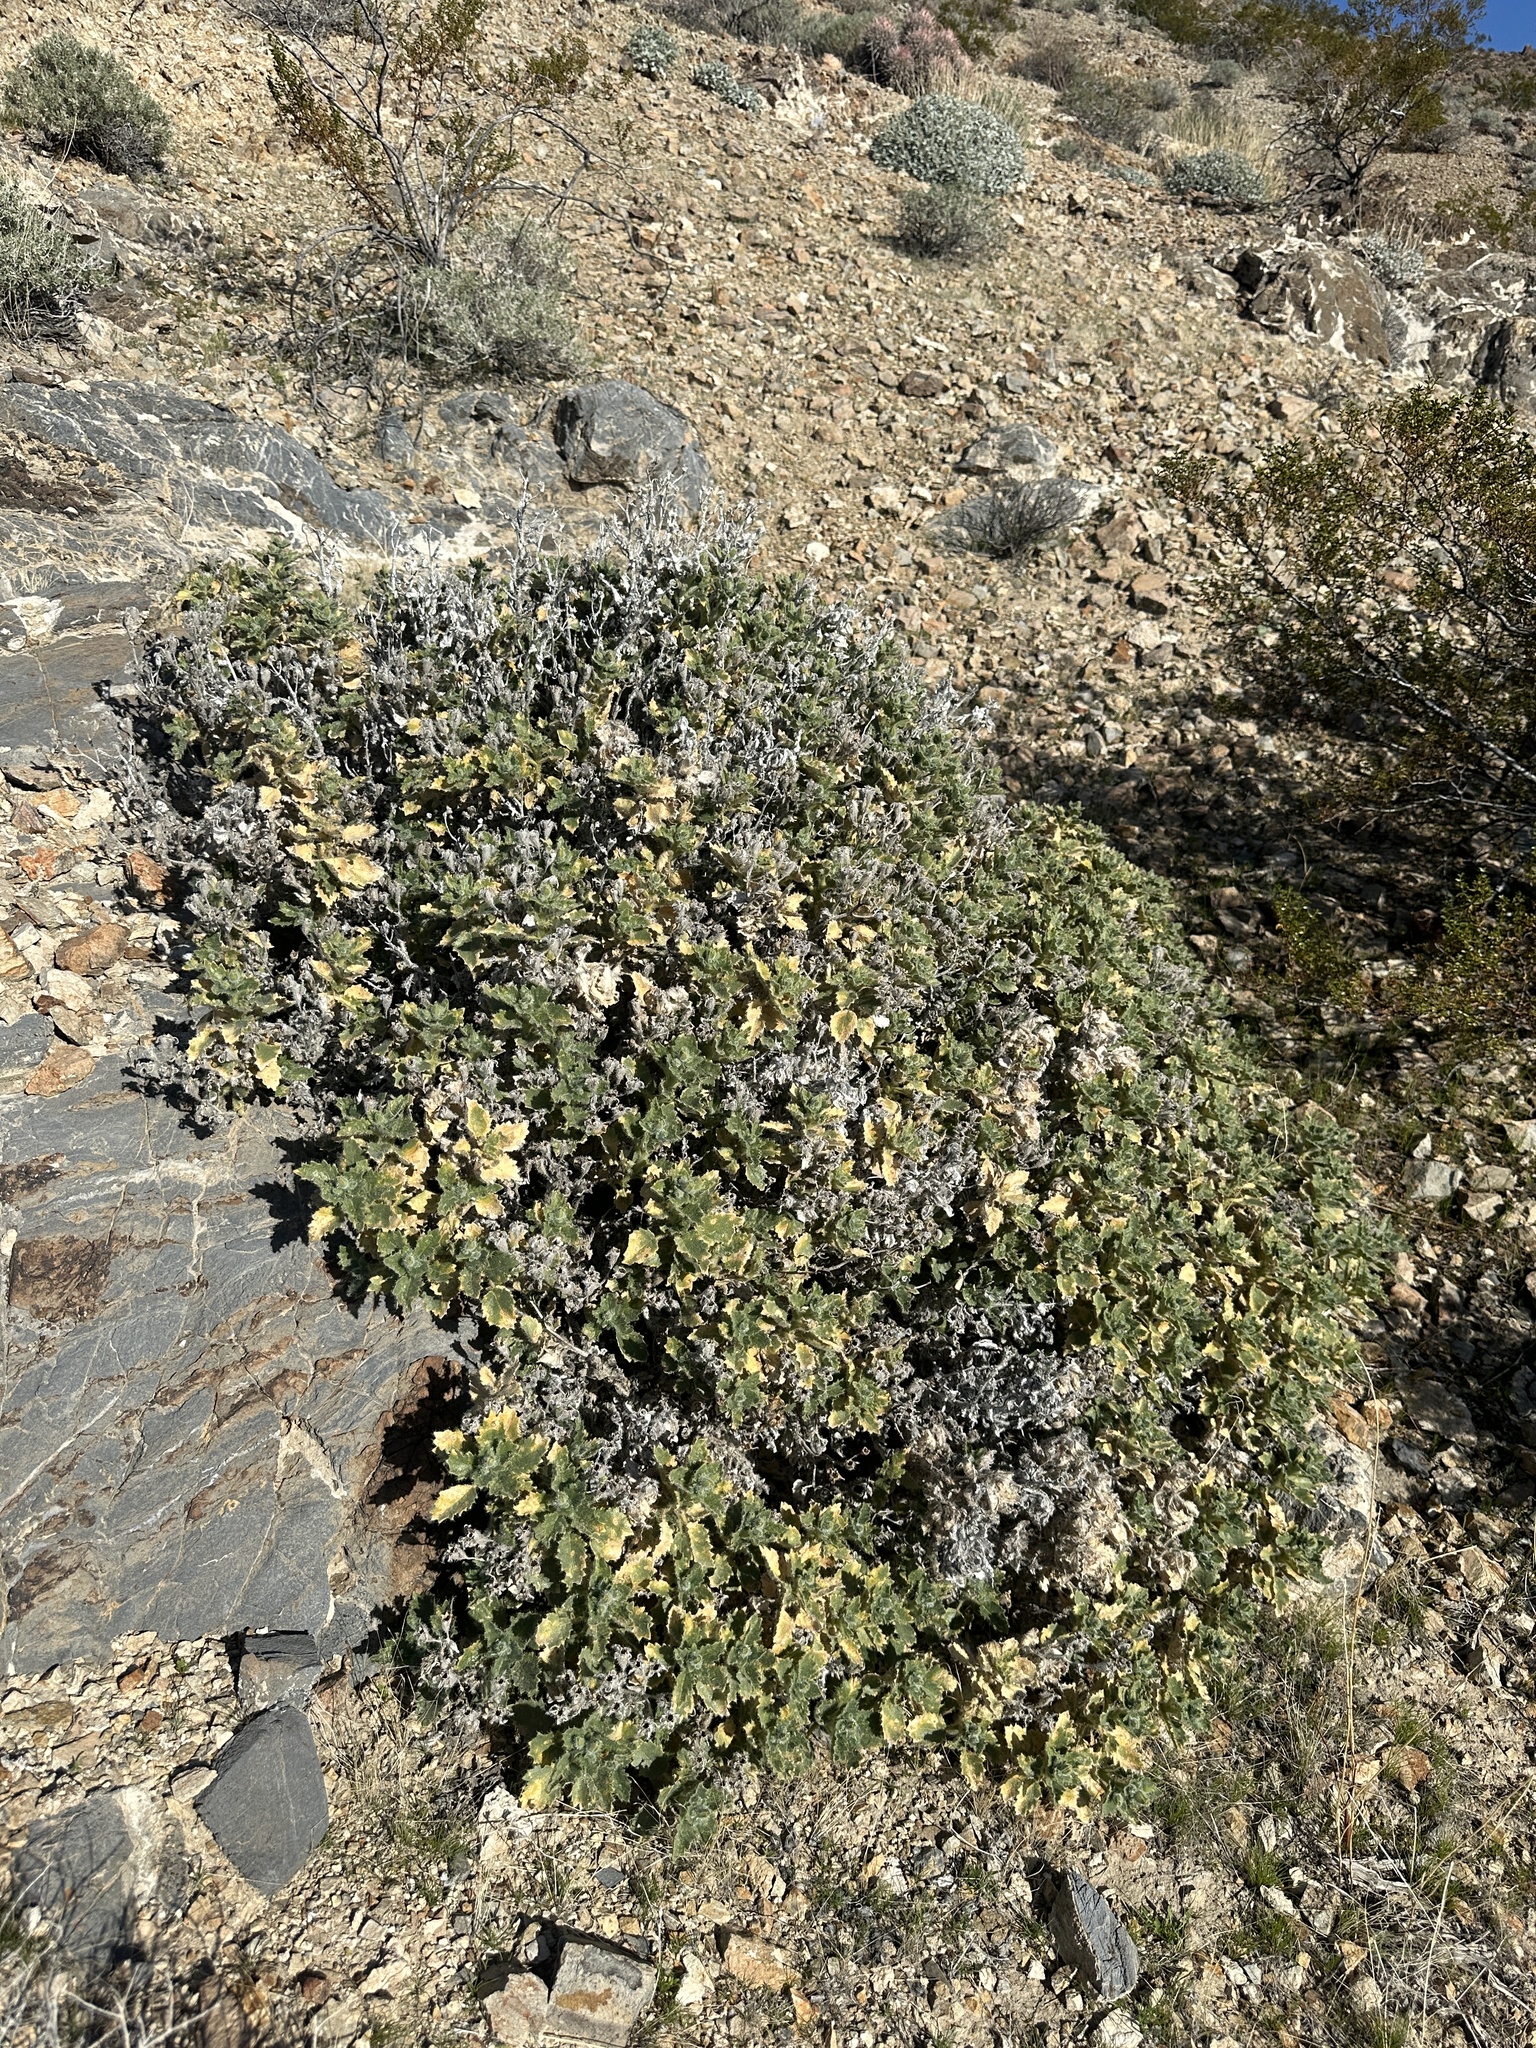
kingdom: Plantae
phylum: Tracheophyta
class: Magnoliopsida
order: Cornales
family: Loasaceae
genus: Eucnide
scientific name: Eucnide urens
